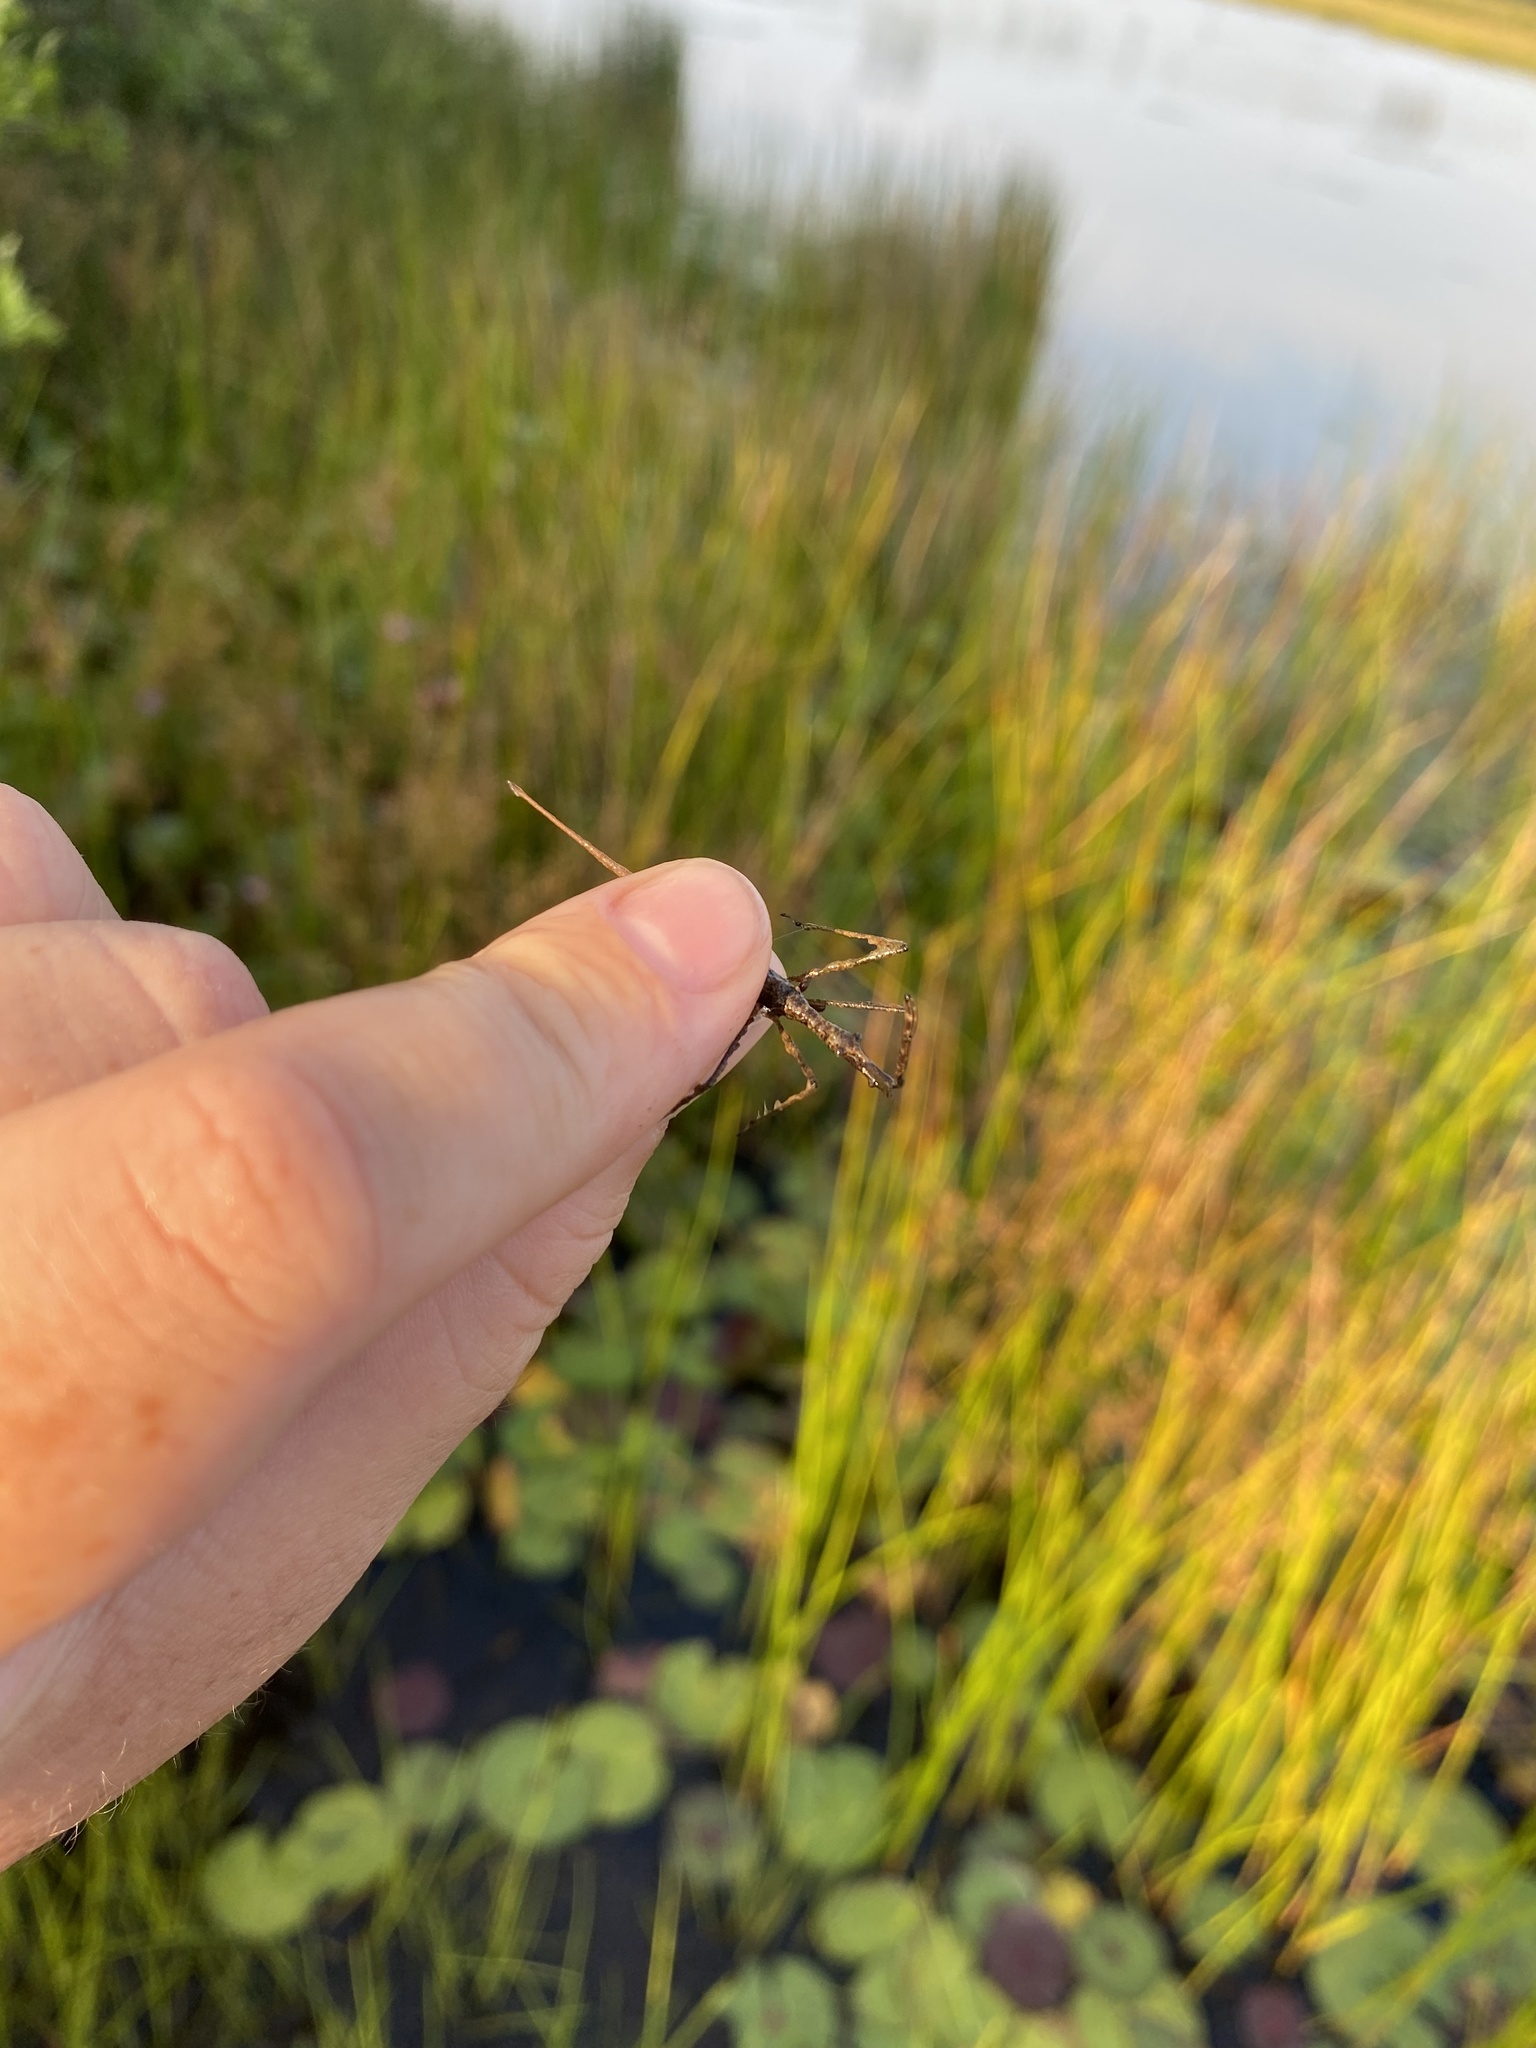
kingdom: Animalia
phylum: Arthropoda
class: Insecta
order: Hemiptera
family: Nepidae
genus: Ranatra
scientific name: Ranatra kirkaldyi
